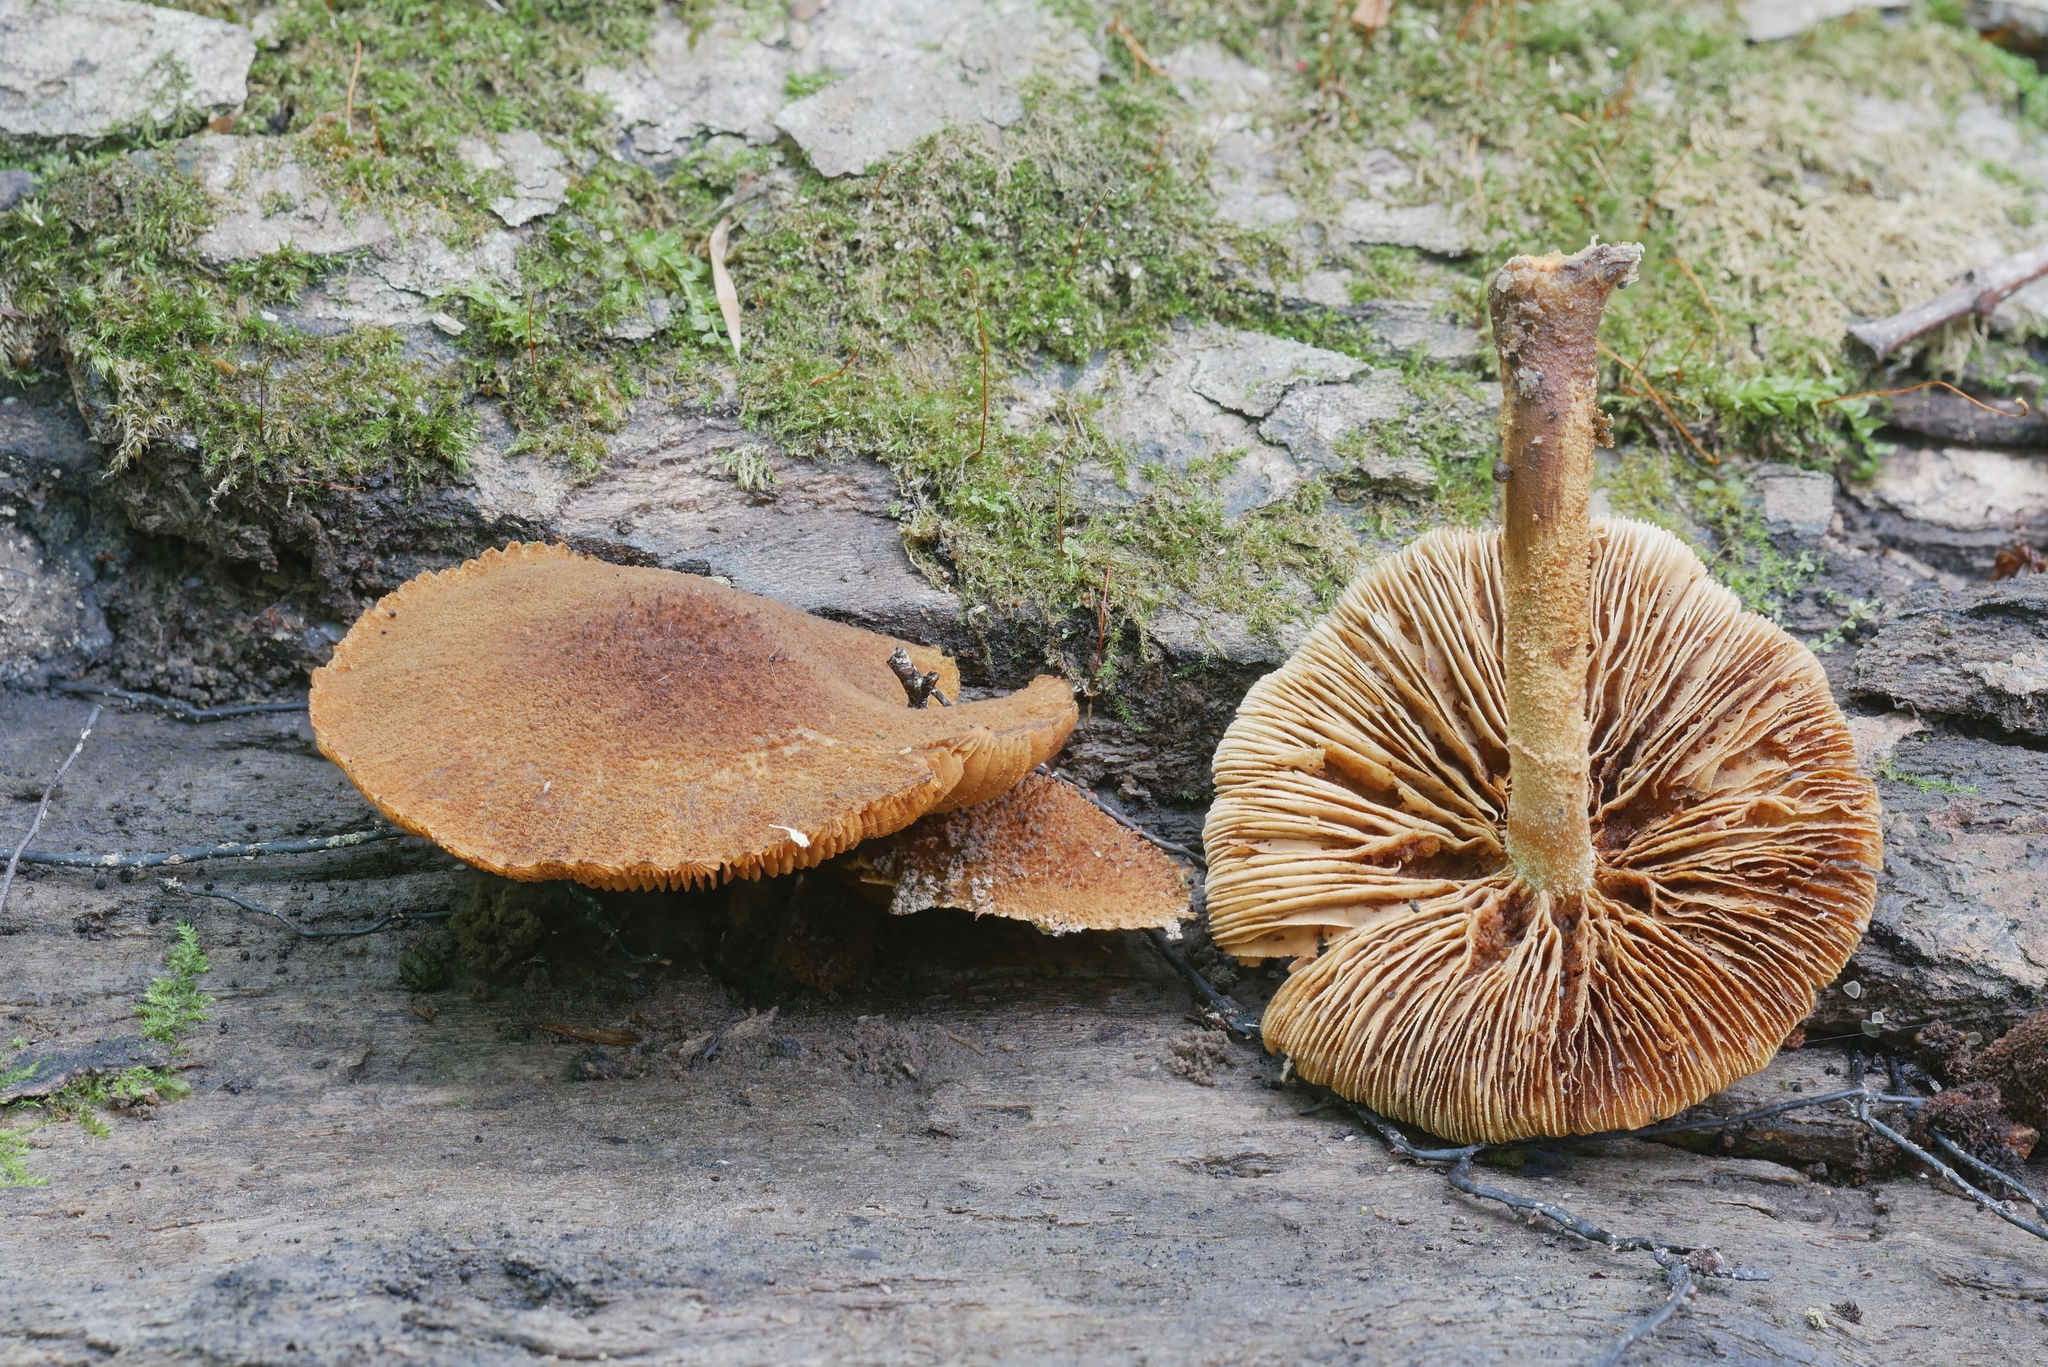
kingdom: Fungi
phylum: Basidiomycota
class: Agaricomycetes
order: Agaricales
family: Strophariaceae
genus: Pholiota
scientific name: Pholiota granulosa
